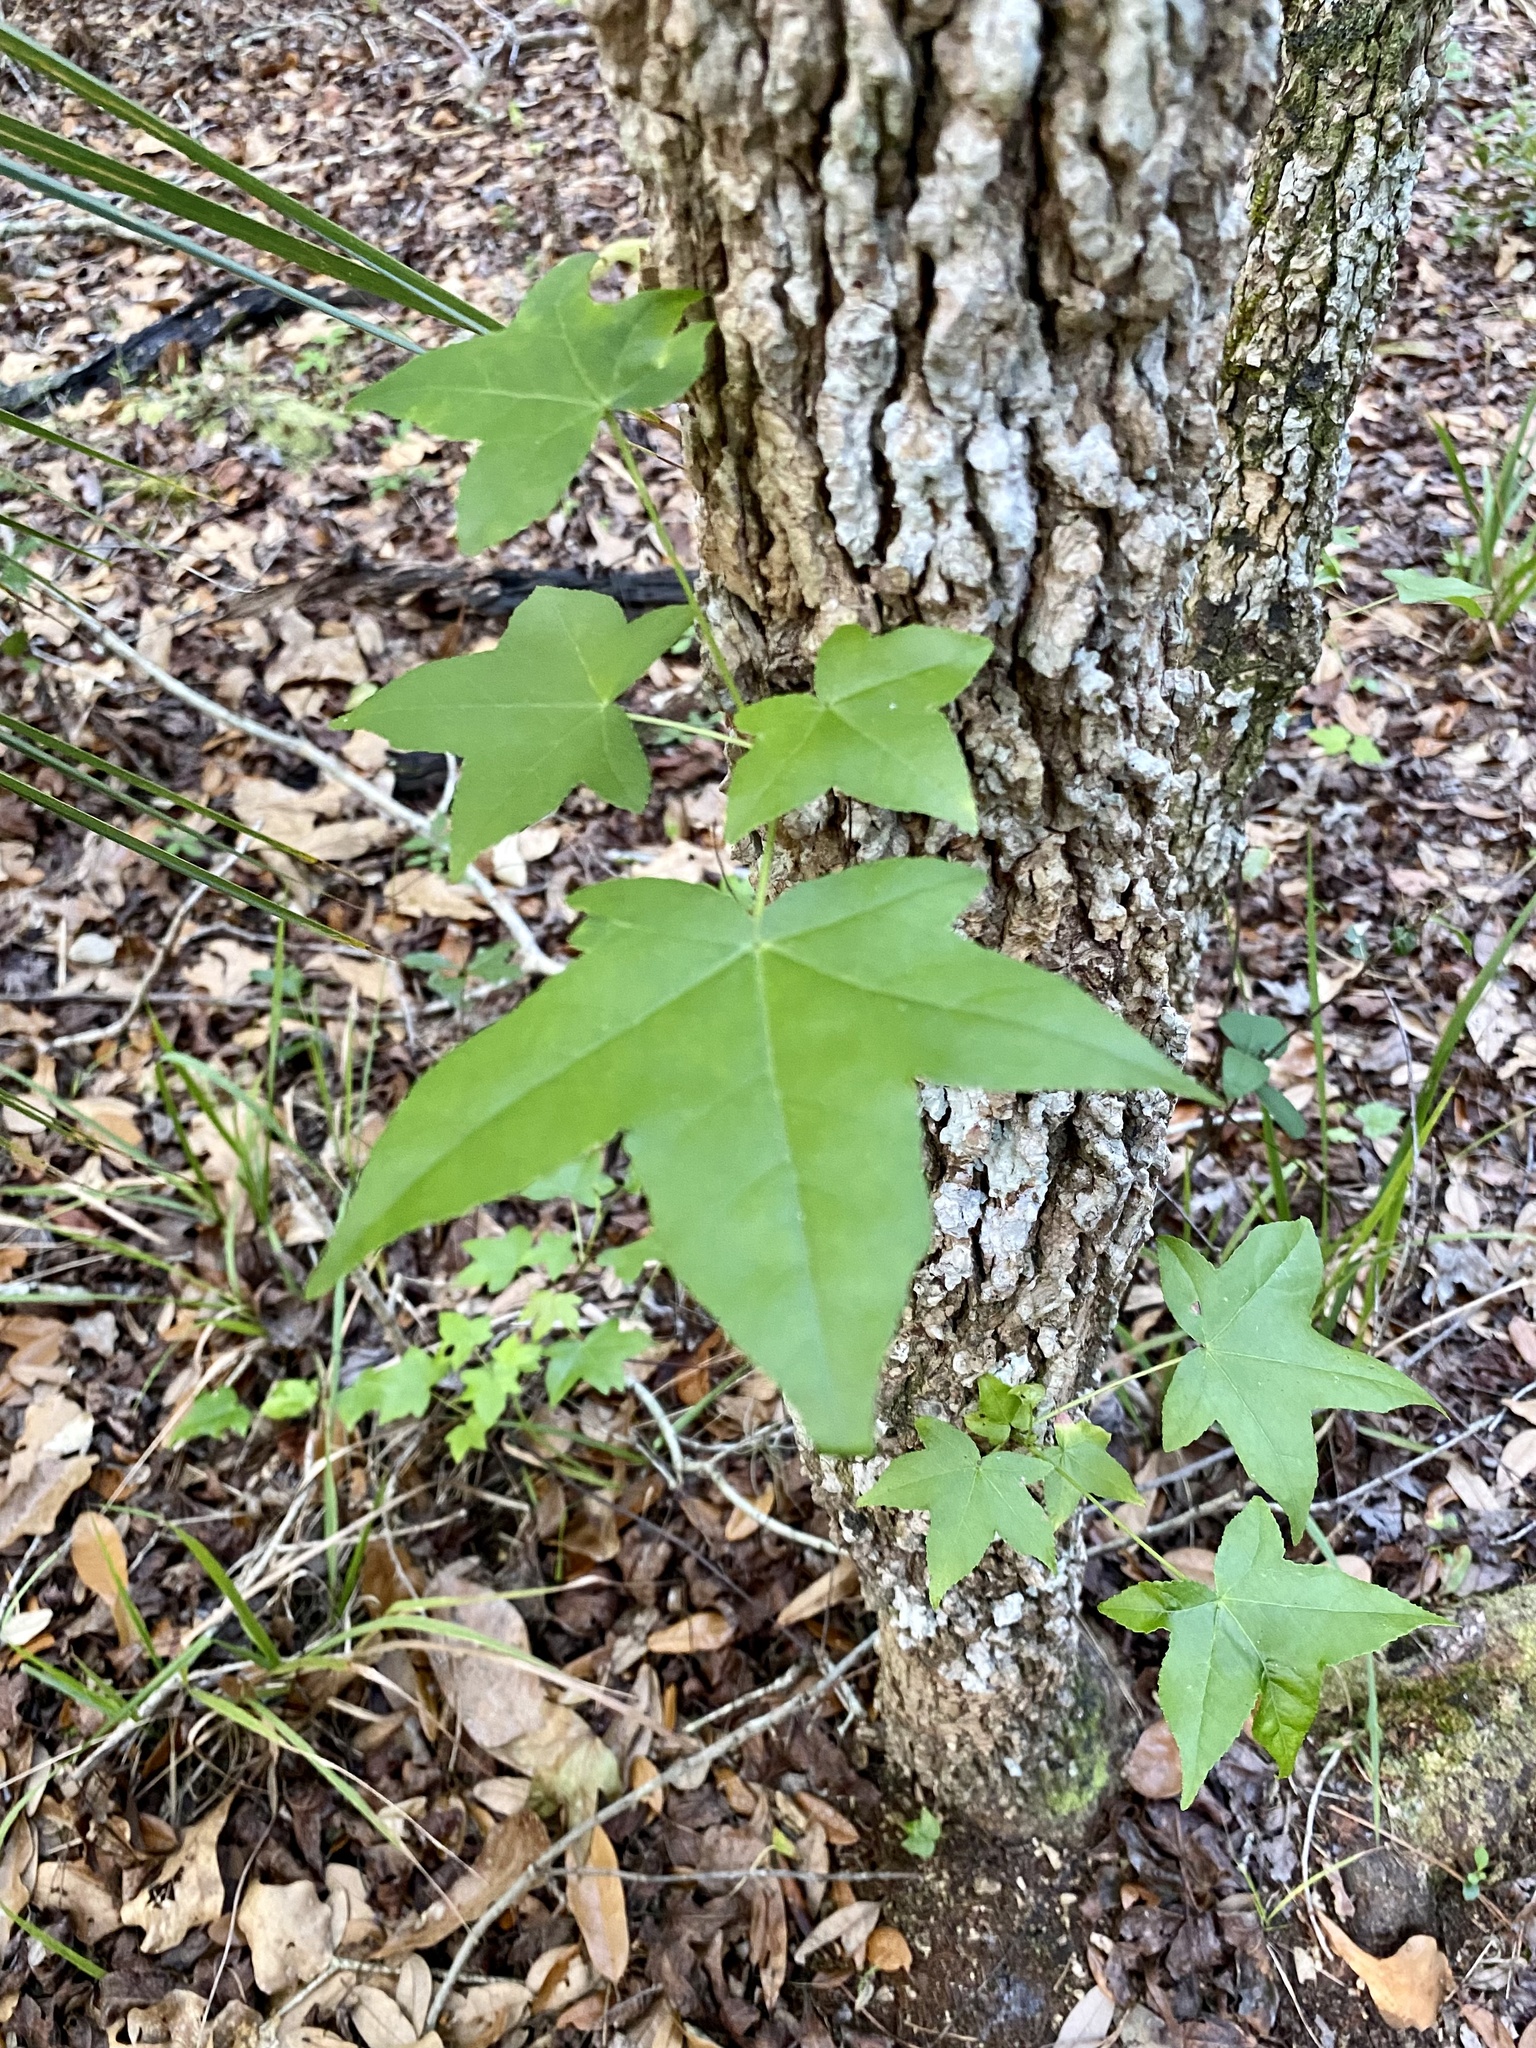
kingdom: Plantae
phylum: Tracheophyta
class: Magnoliopsida
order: Saxifragales
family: Altingiaceae
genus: Liquidambar
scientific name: Liquidambar styraciflua
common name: Sweet gum
